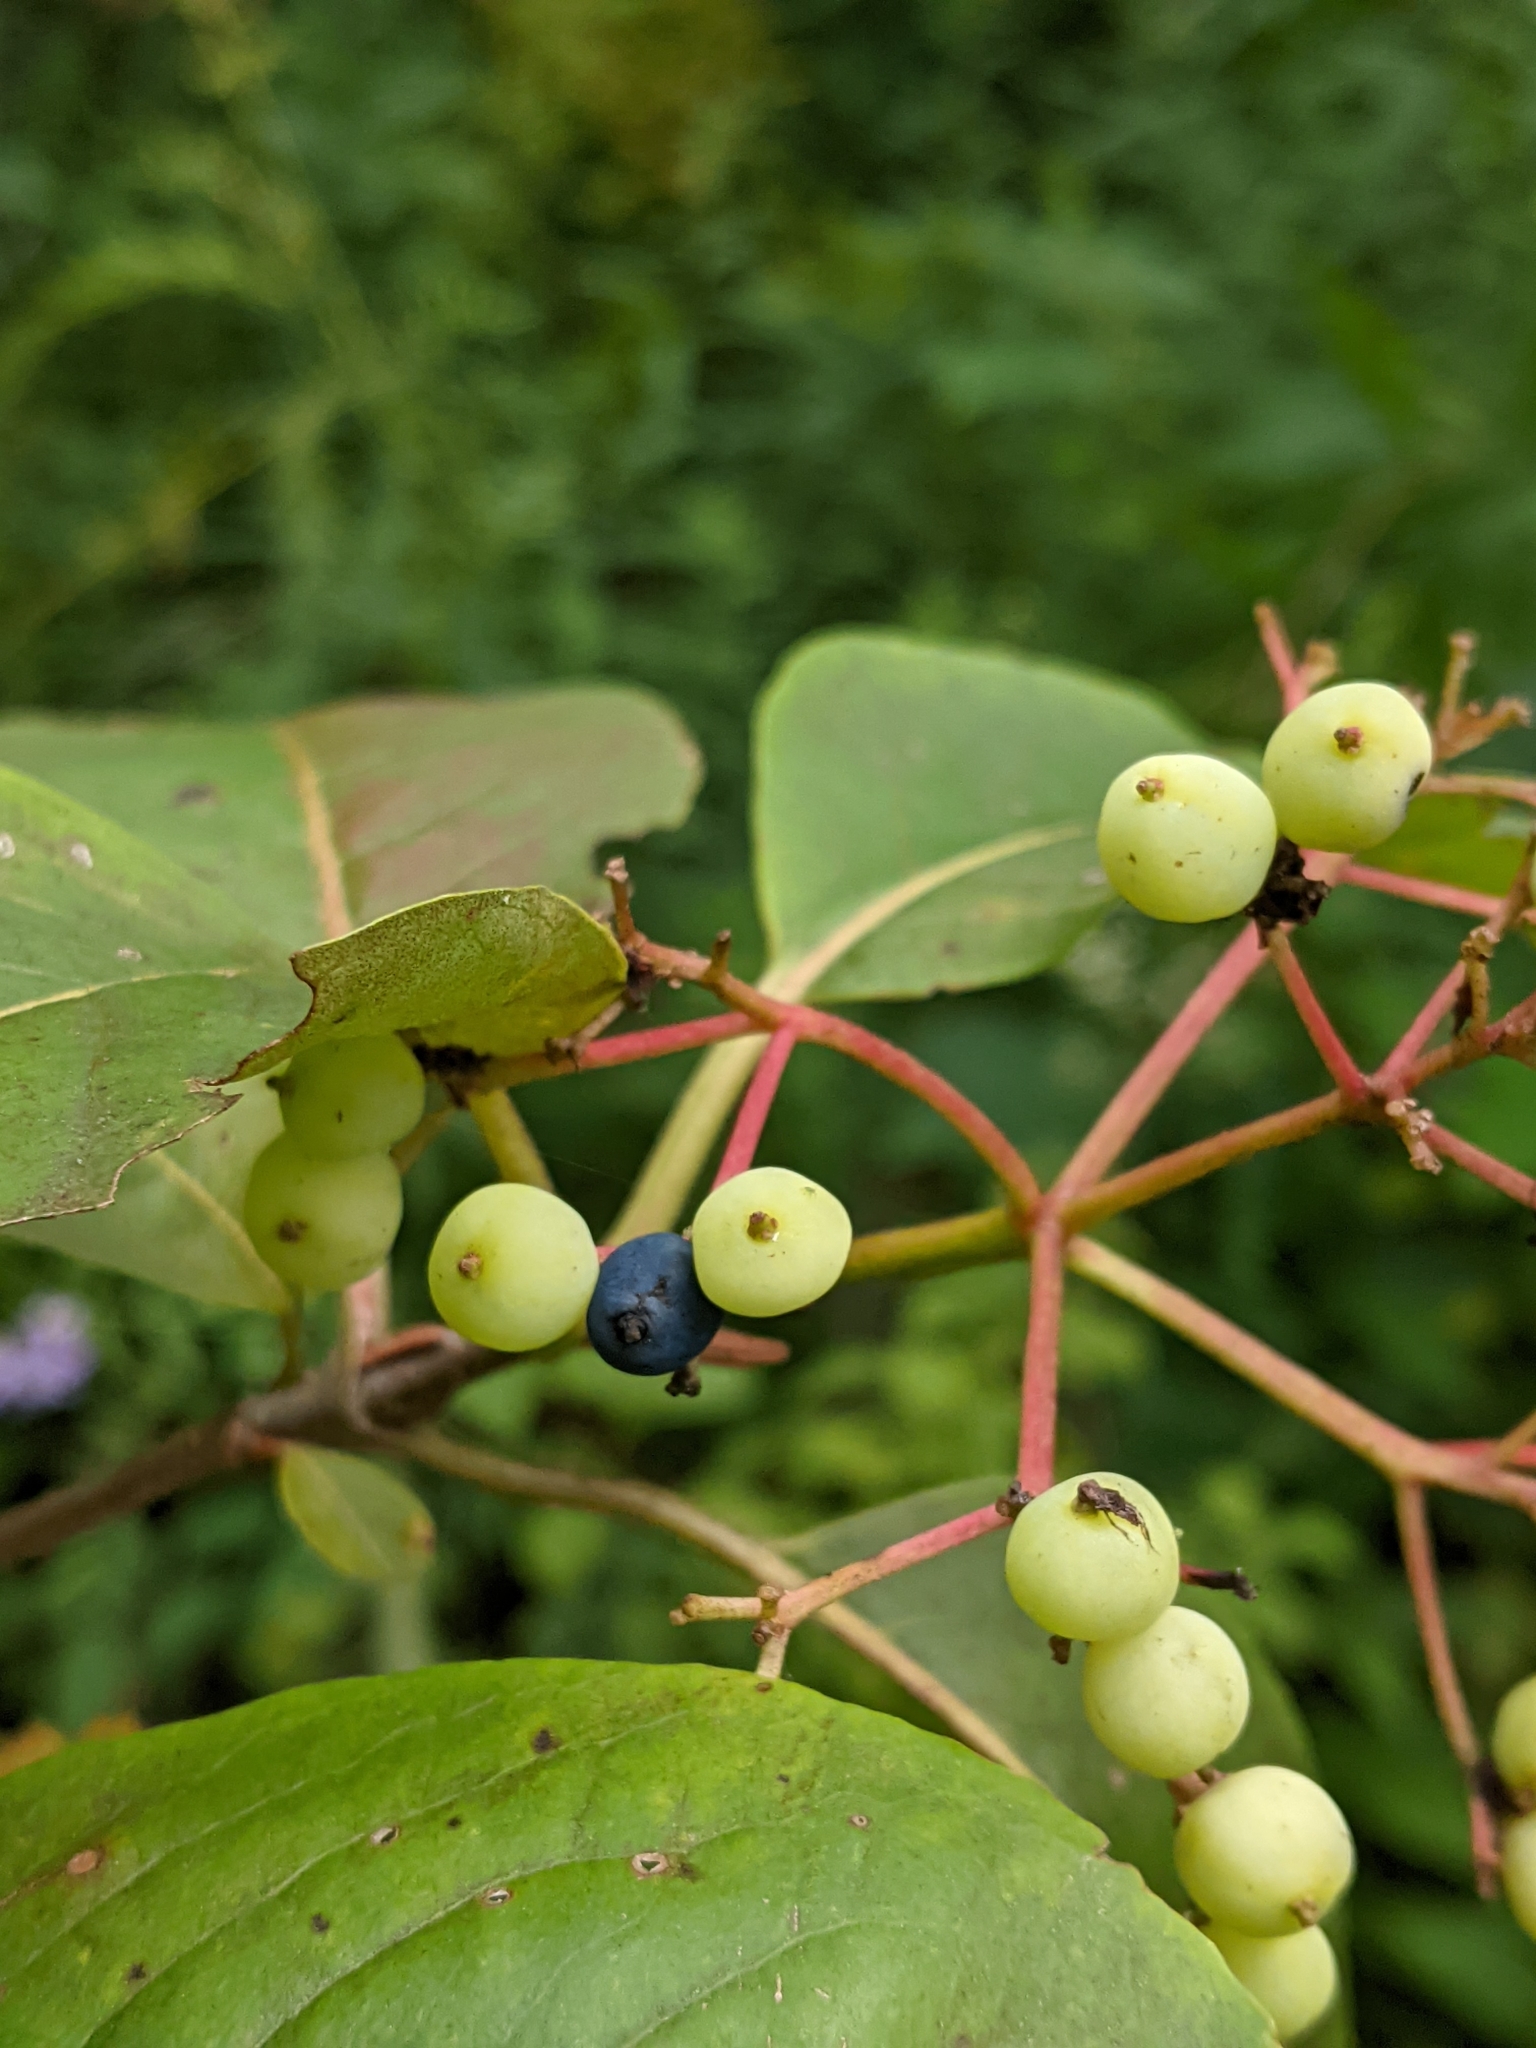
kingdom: Plantae
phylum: Tracheophyta
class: Magnoliopsida
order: Dipsacales
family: Viburnaceae
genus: Viburnum
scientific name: Viburnum cassinoides
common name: Swamp haw
